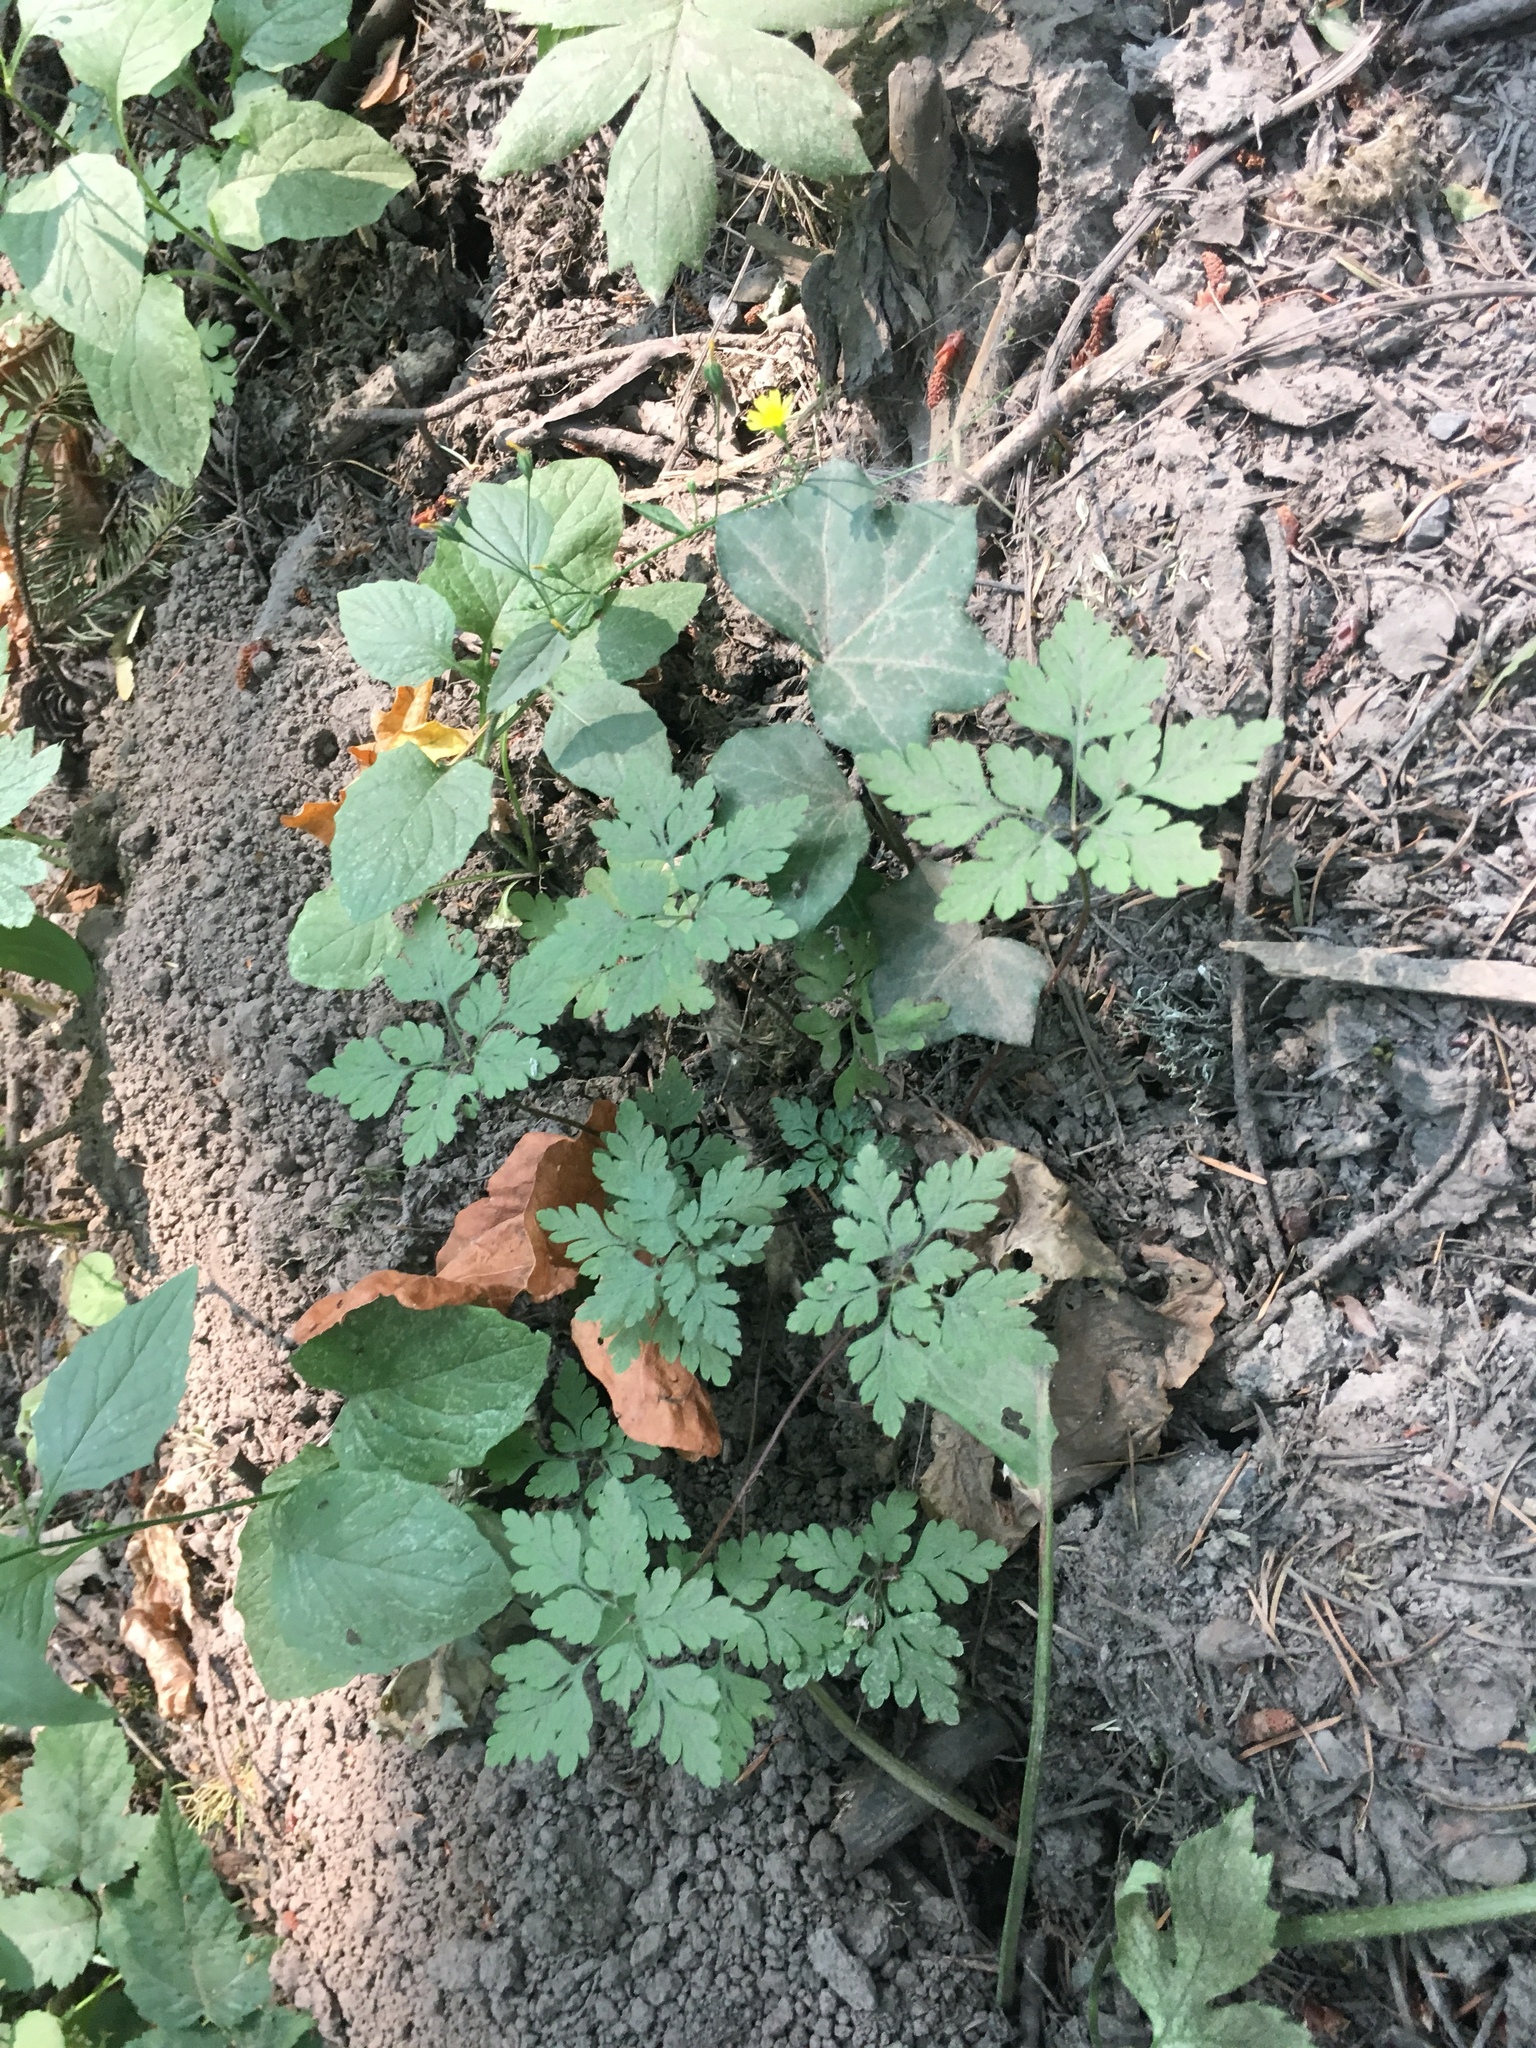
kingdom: Plantae
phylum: Tracheophyta
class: Magnoliopsida
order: Geraniales
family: Geraniaceae
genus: Geranium
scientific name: Geranium robertianum
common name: Herb-robert
